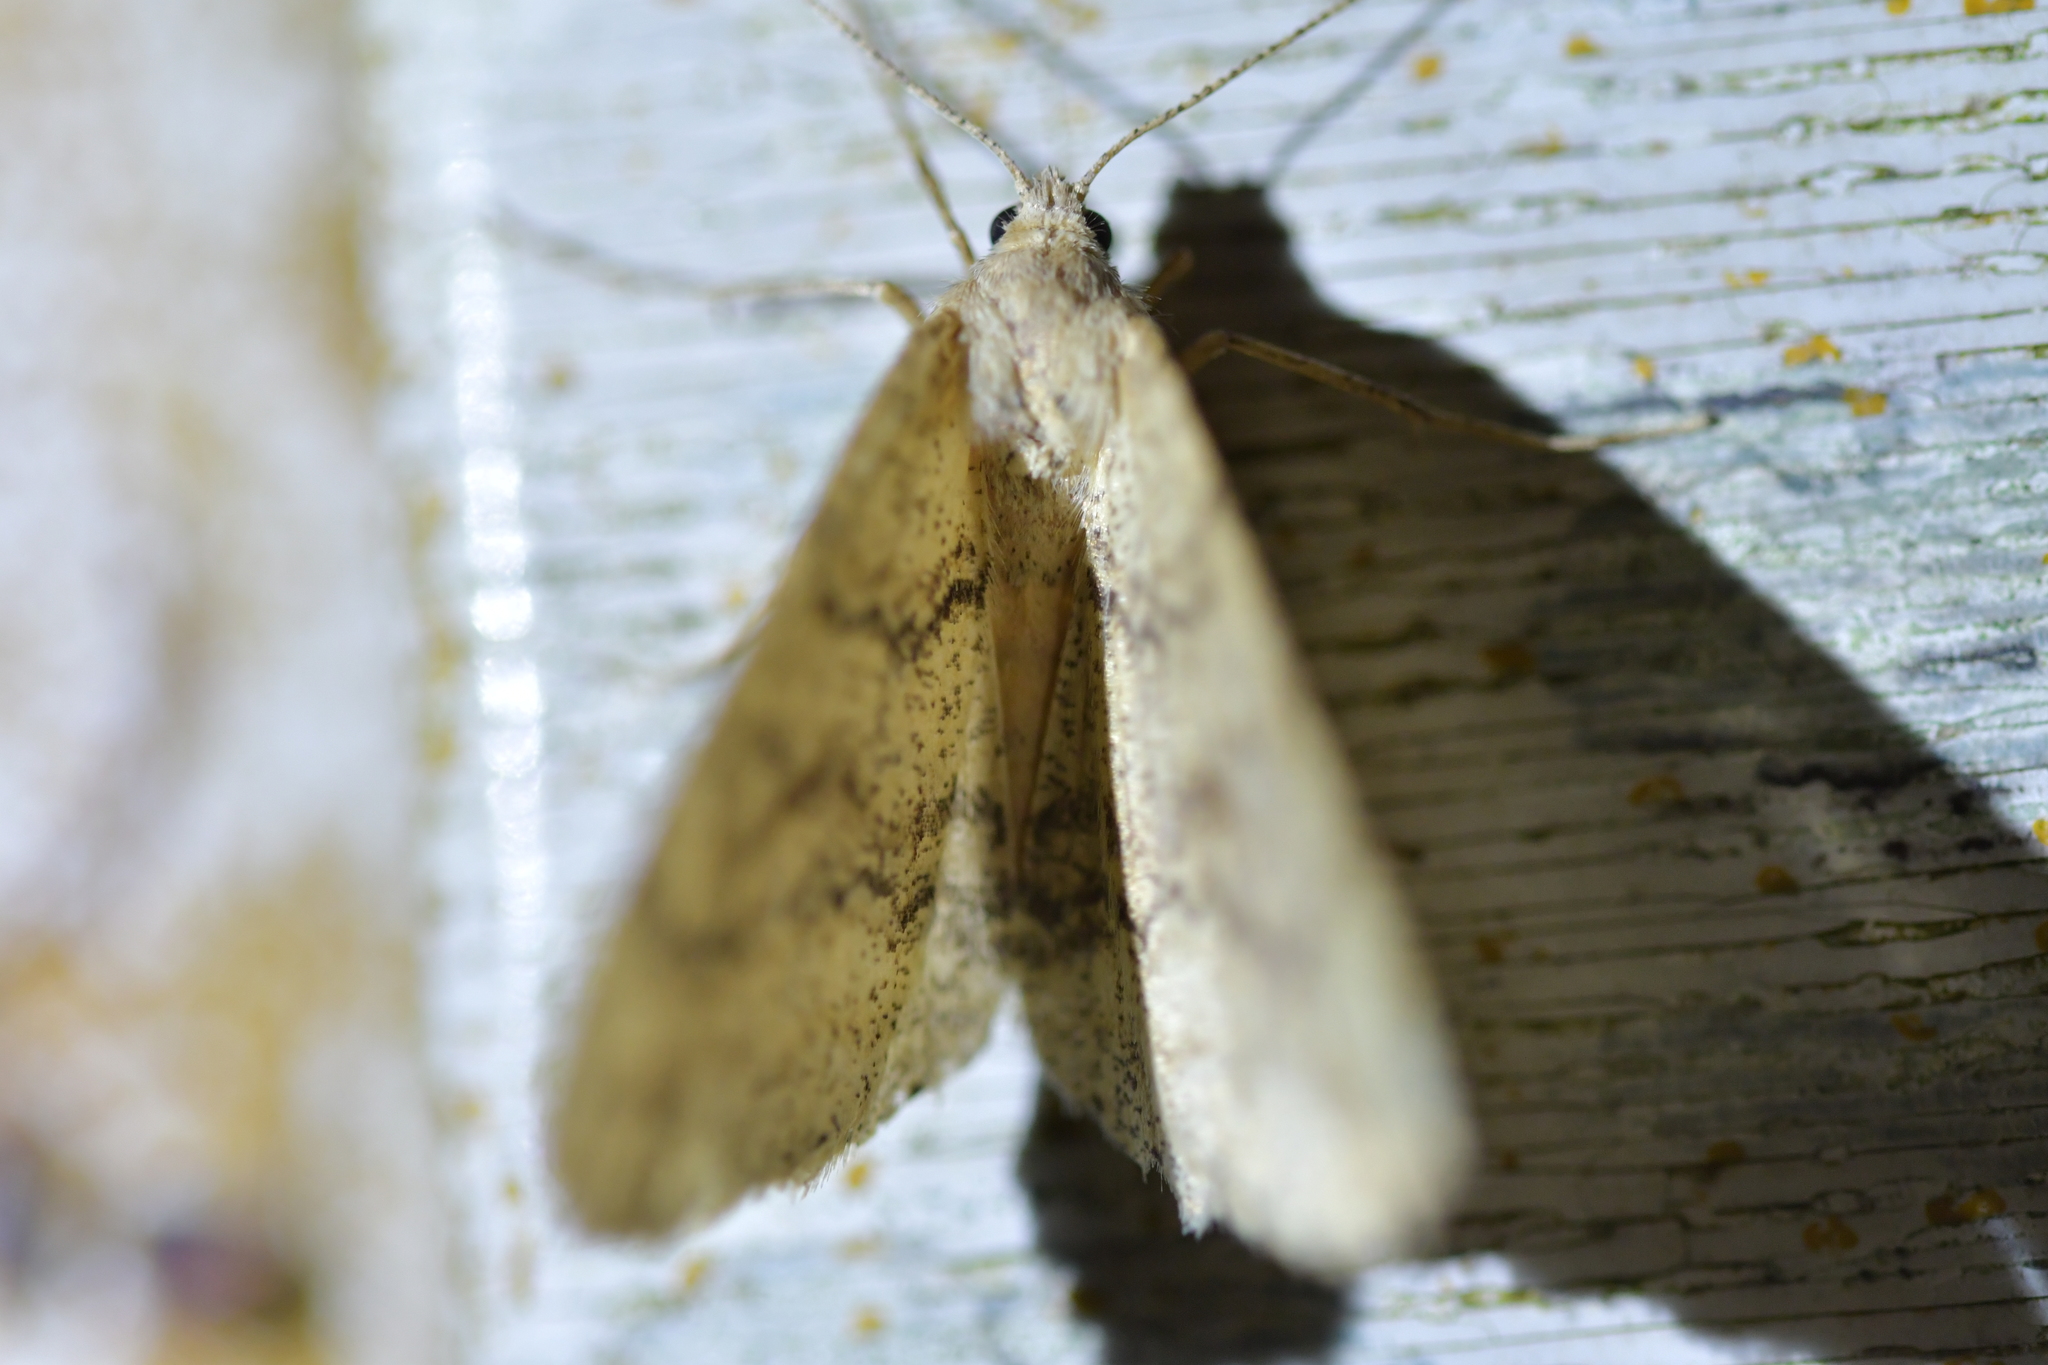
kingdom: Animalia
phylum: Arthropoda
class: Insecta
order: Lepidoptera
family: Geometridae
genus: Cleora
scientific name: Cleora scriptaria
